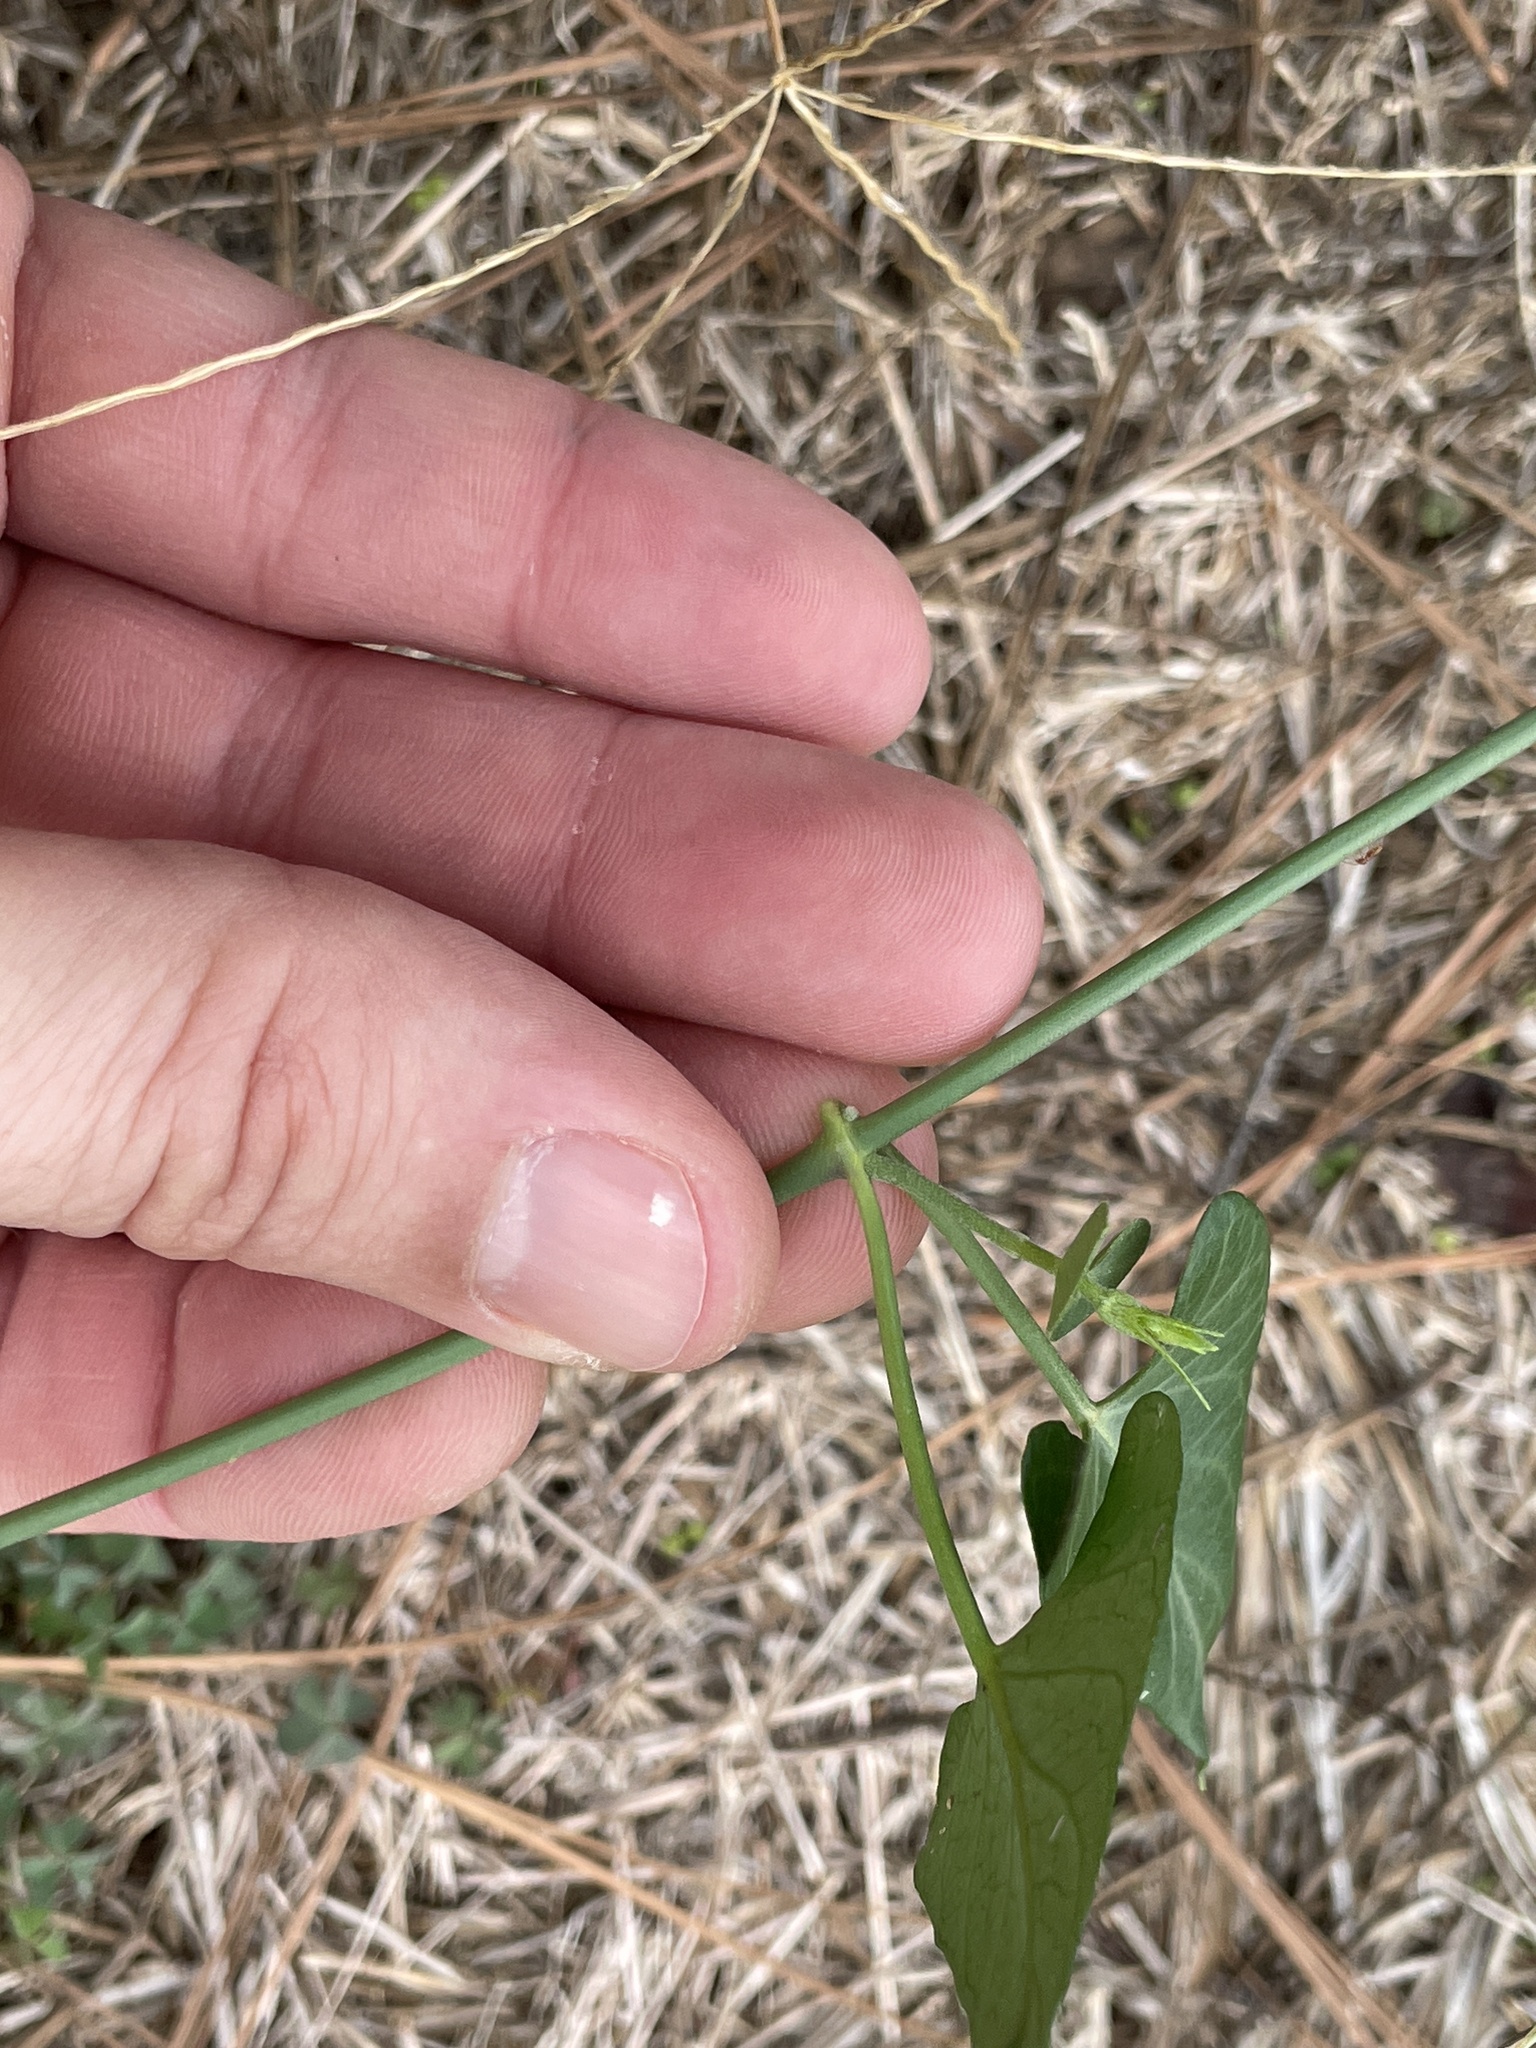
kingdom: Plantae
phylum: Tracheophyta
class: Magnoliopsida
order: Gentianales
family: Apocynaceae
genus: Funastrum
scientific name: Funastrum cynanchoides
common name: Climbing-milkweed
